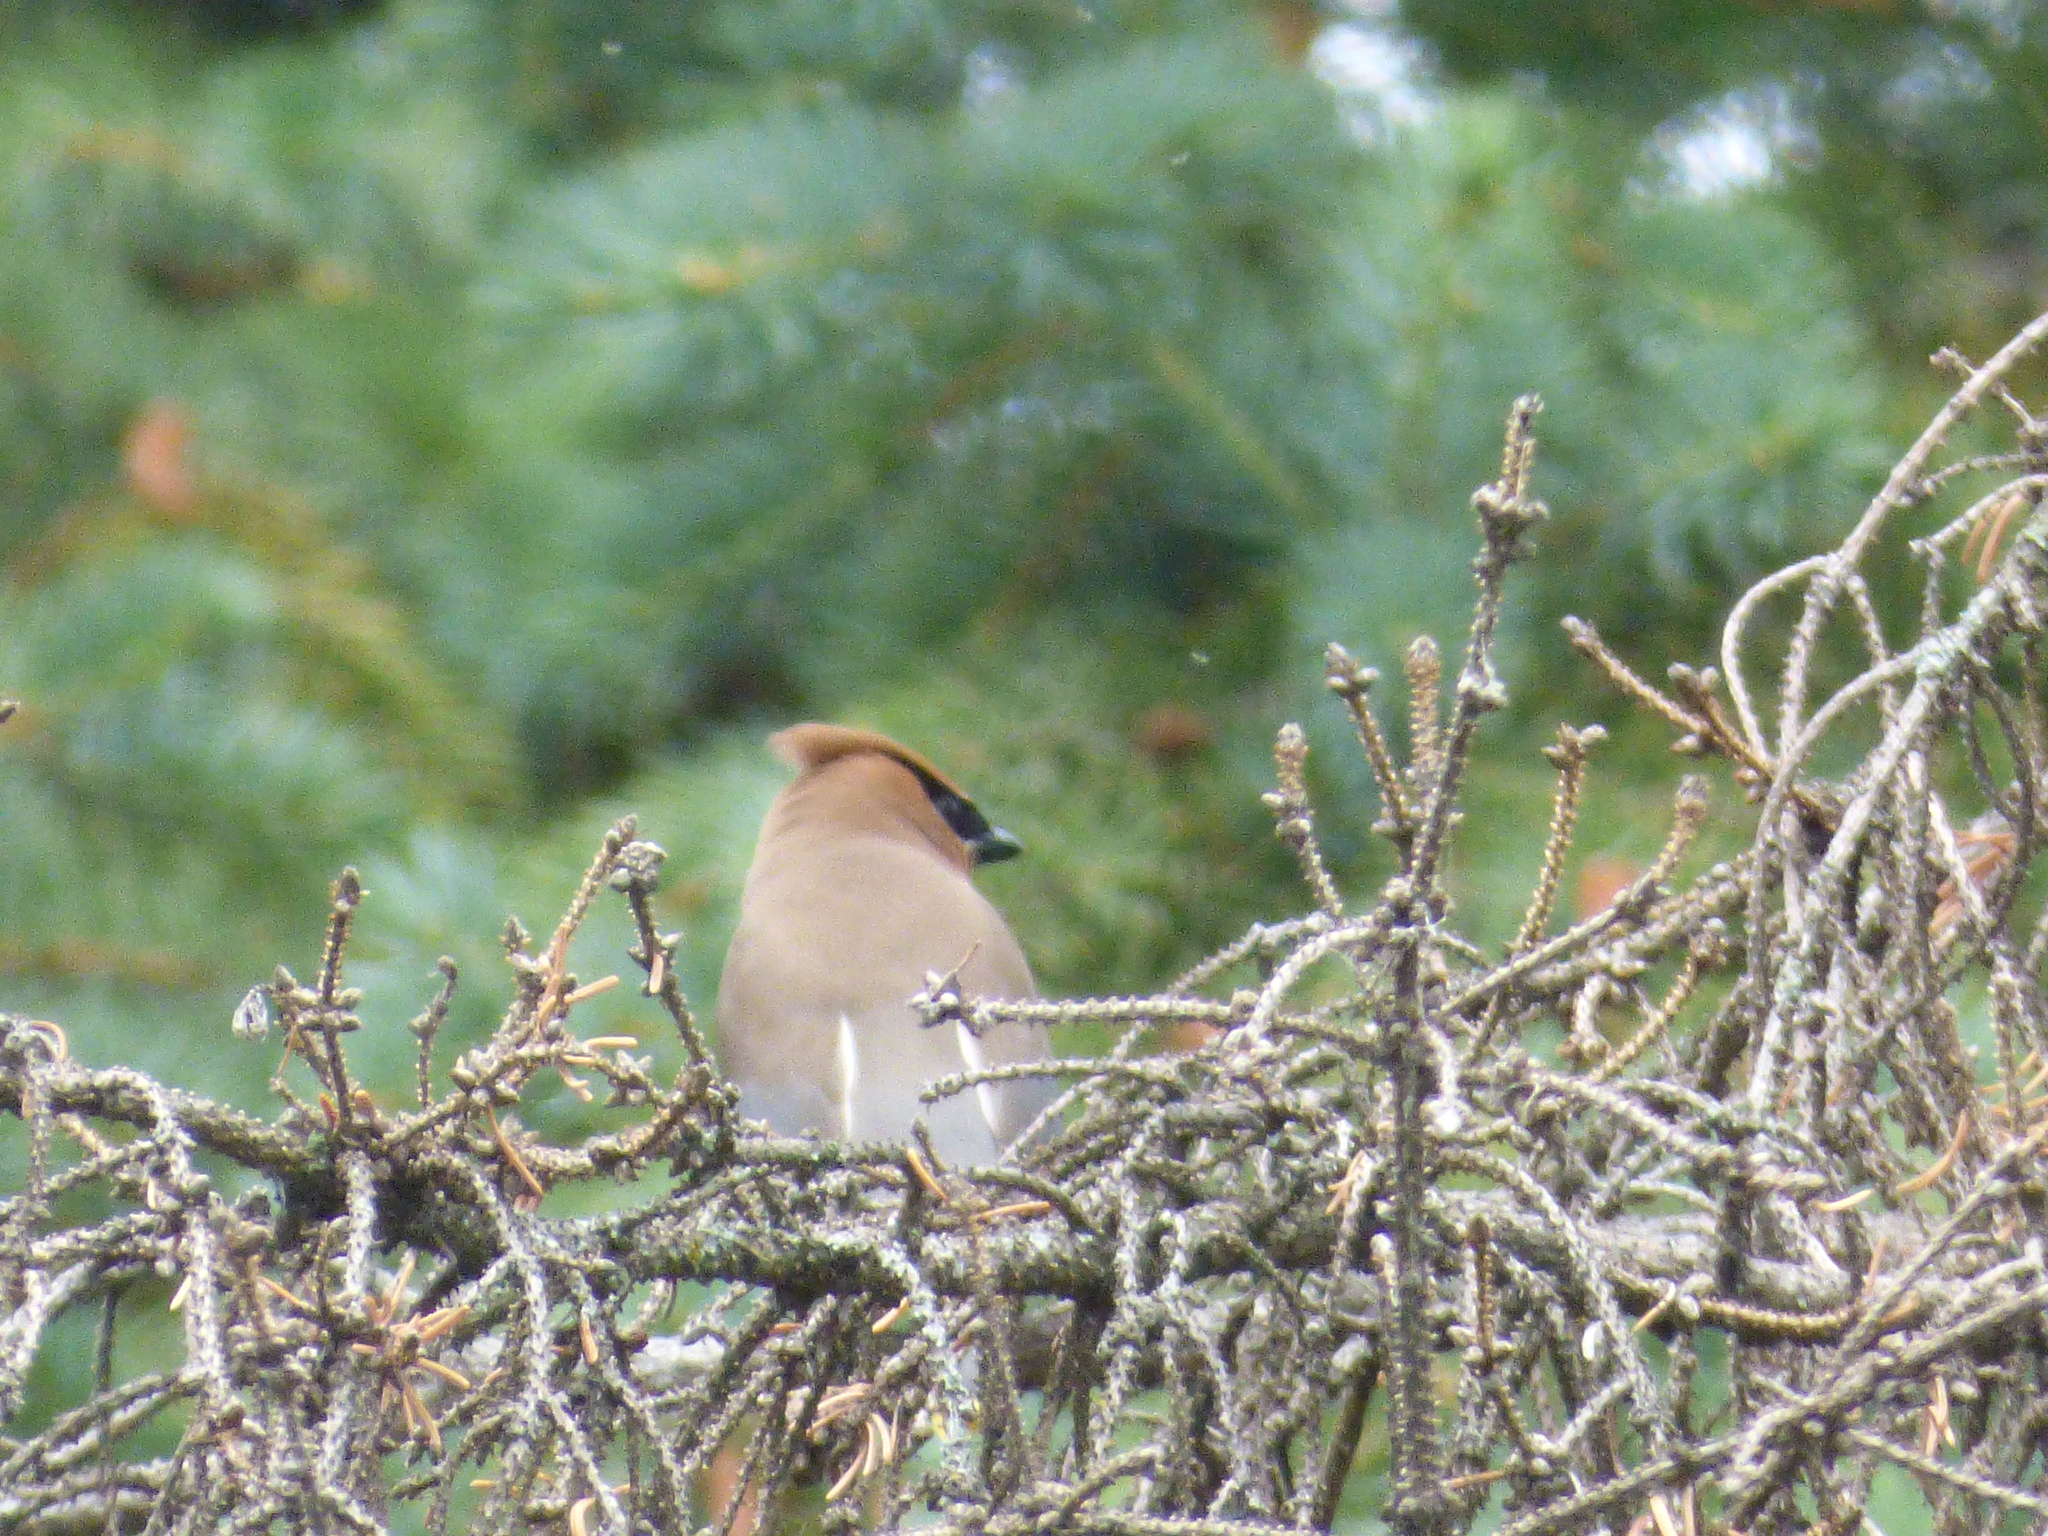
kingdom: Animalia
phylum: Chordata
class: Aves
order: Passeriformes
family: Bombycillidae
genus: Bombycilla
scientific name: Bombycilla cedrorum
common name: Cedar waxwing
